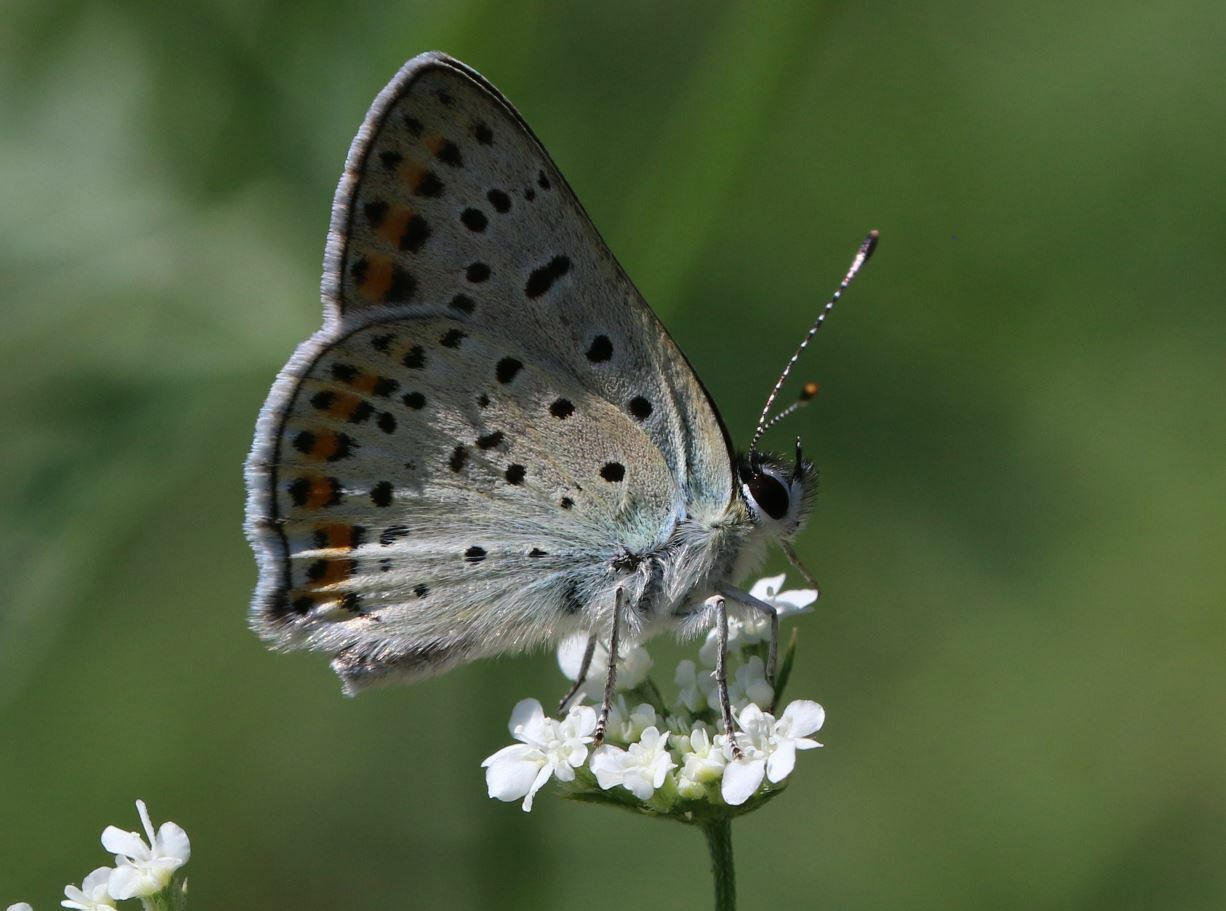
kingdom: Animalia
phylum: Arthropoda
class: Insecta
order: Lepidoptera
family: Lycaenidae
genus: Loweia
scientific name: Loweia tityrus
